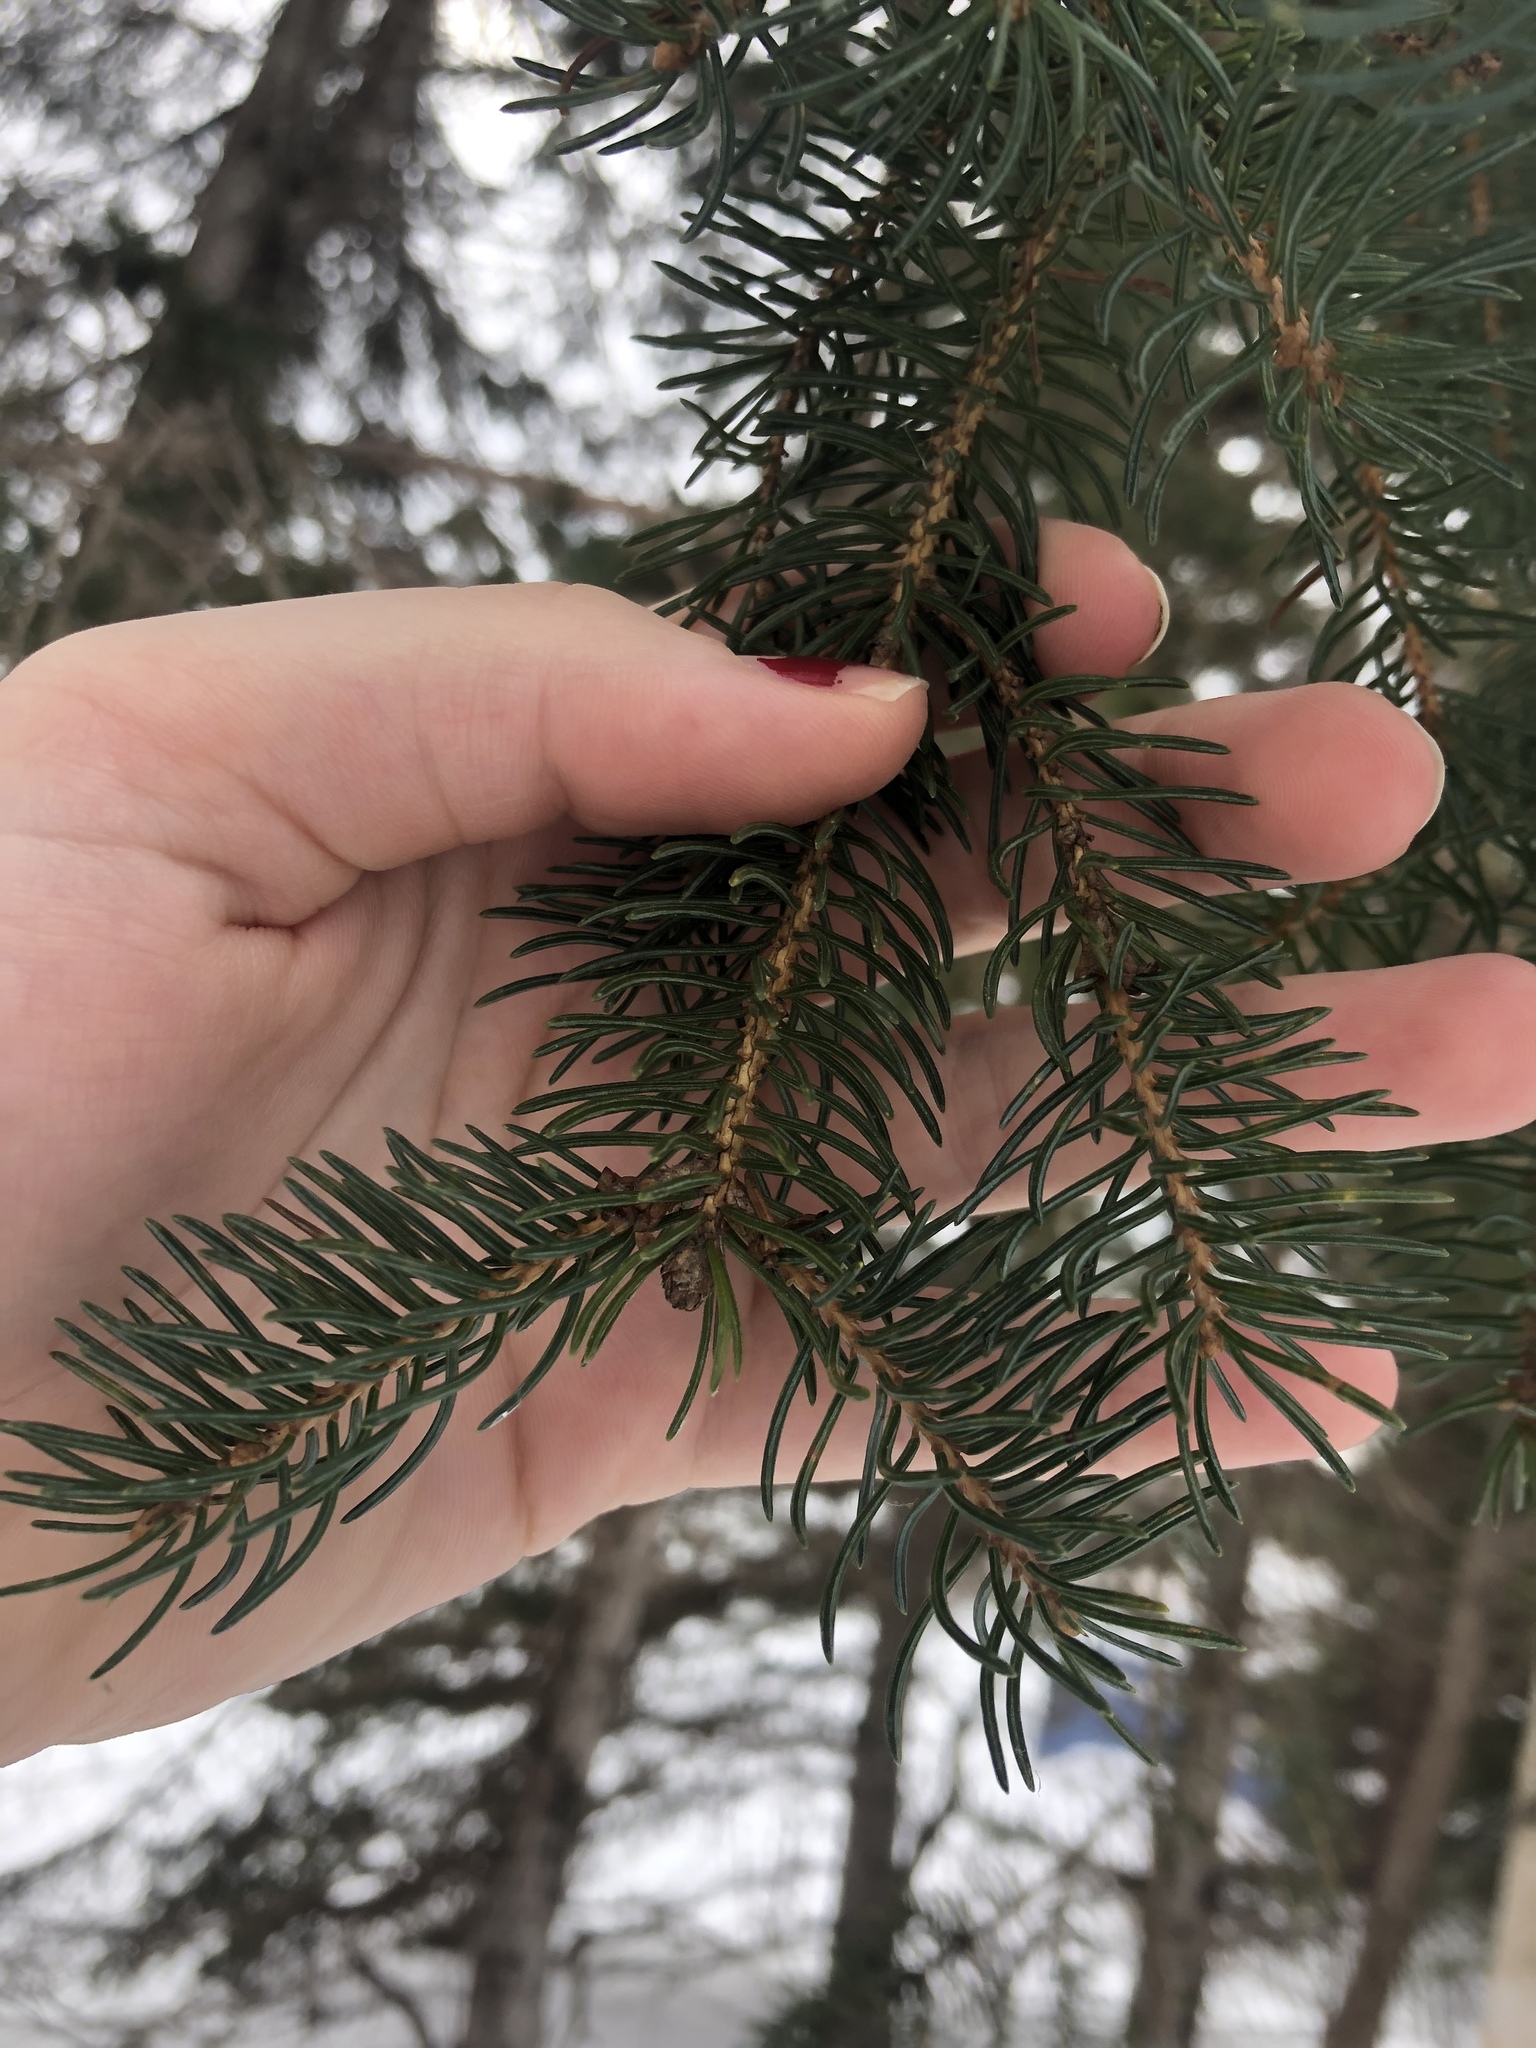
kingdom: Plantae
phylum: Tracheophyta
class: Pinopsida
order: Pinales
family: Pinaceae
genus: Picea
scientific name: Picea glauca
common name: White spruce
